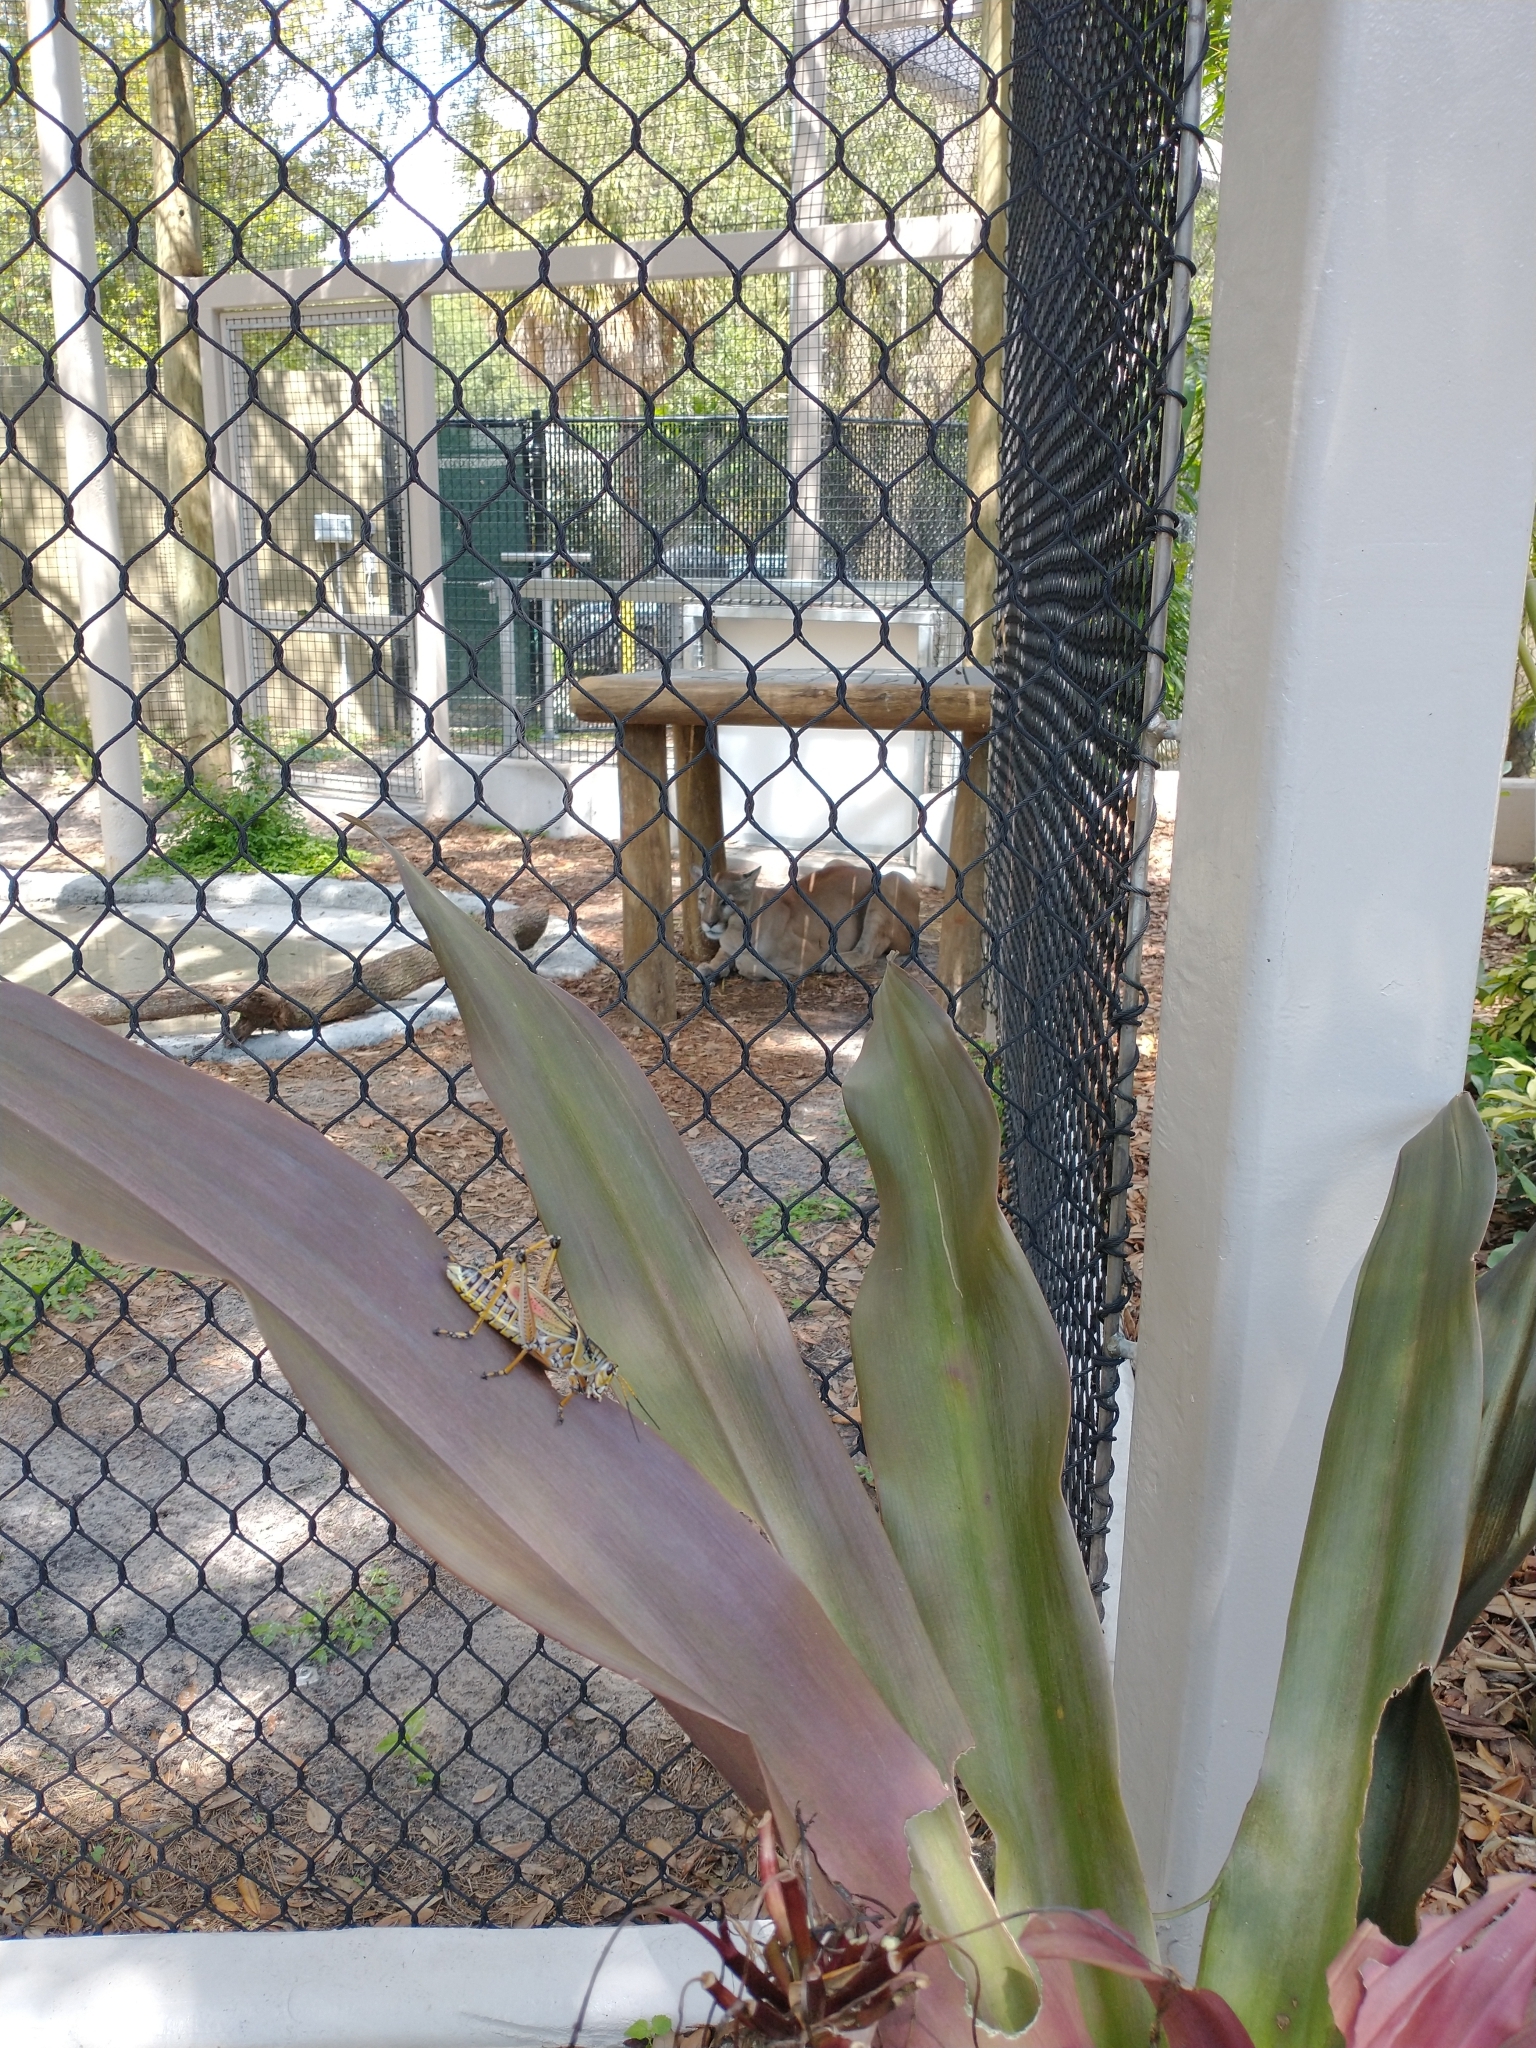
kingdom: Animalia
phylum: Arthropoda
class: Insecta
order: Orthoptera
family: Romaleidae
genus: Romalea
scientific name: Romalea microptera
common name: Eastern lubber grasshopper
